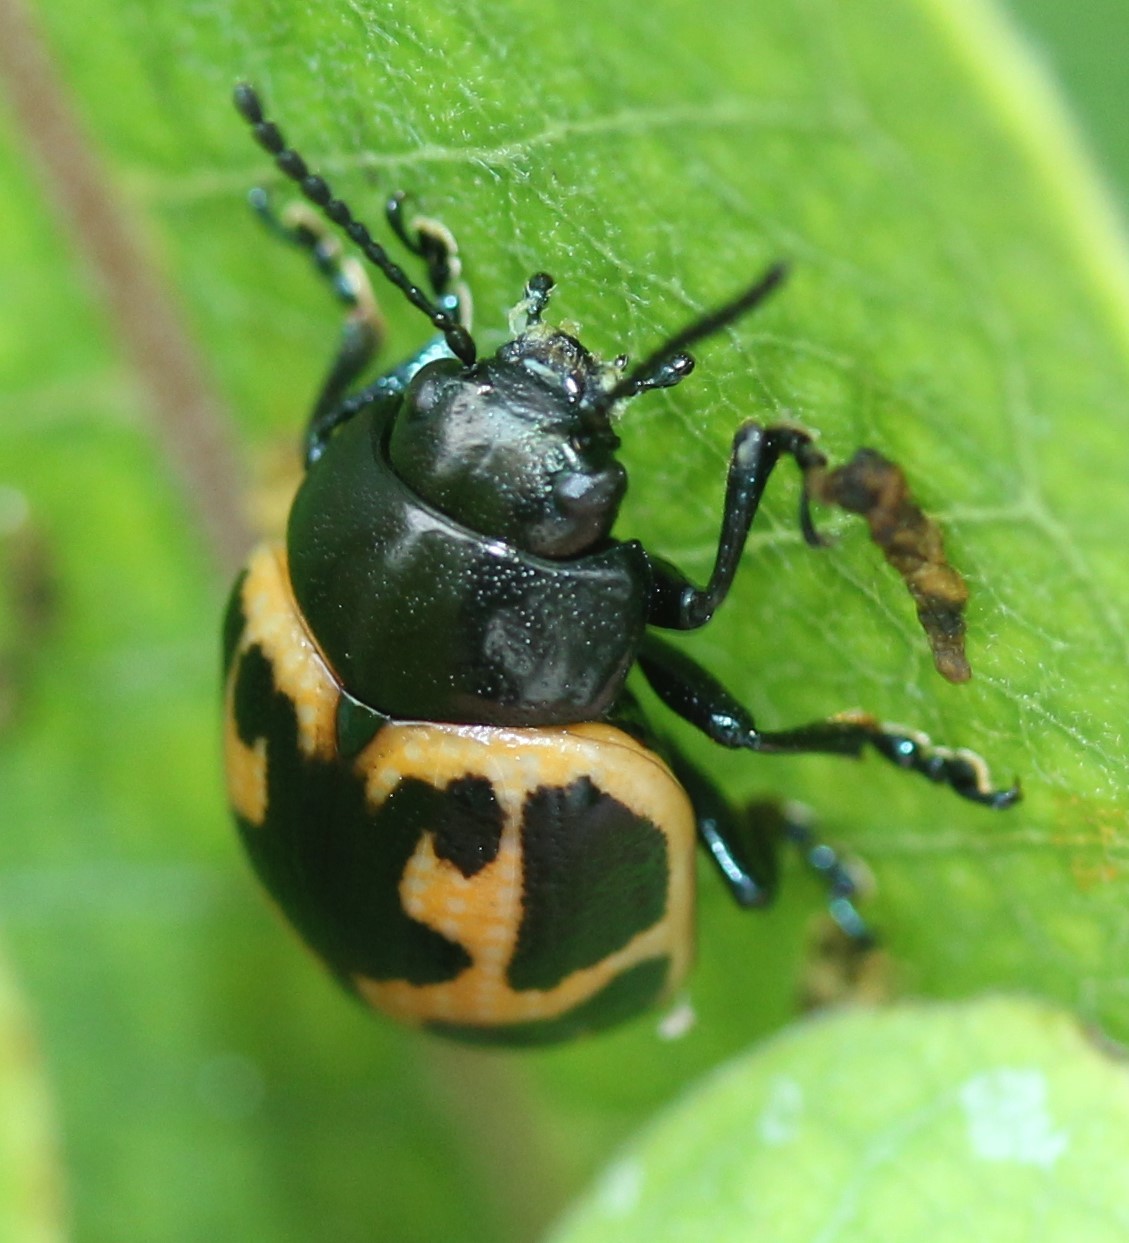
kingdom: Animalia
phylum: Arthropoda
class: Insecta
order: Coleoptera
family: Chrysomelidae
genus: Labidomera
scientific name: Labidomera clivicollis
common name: Swamp milkweed leaf beetle
